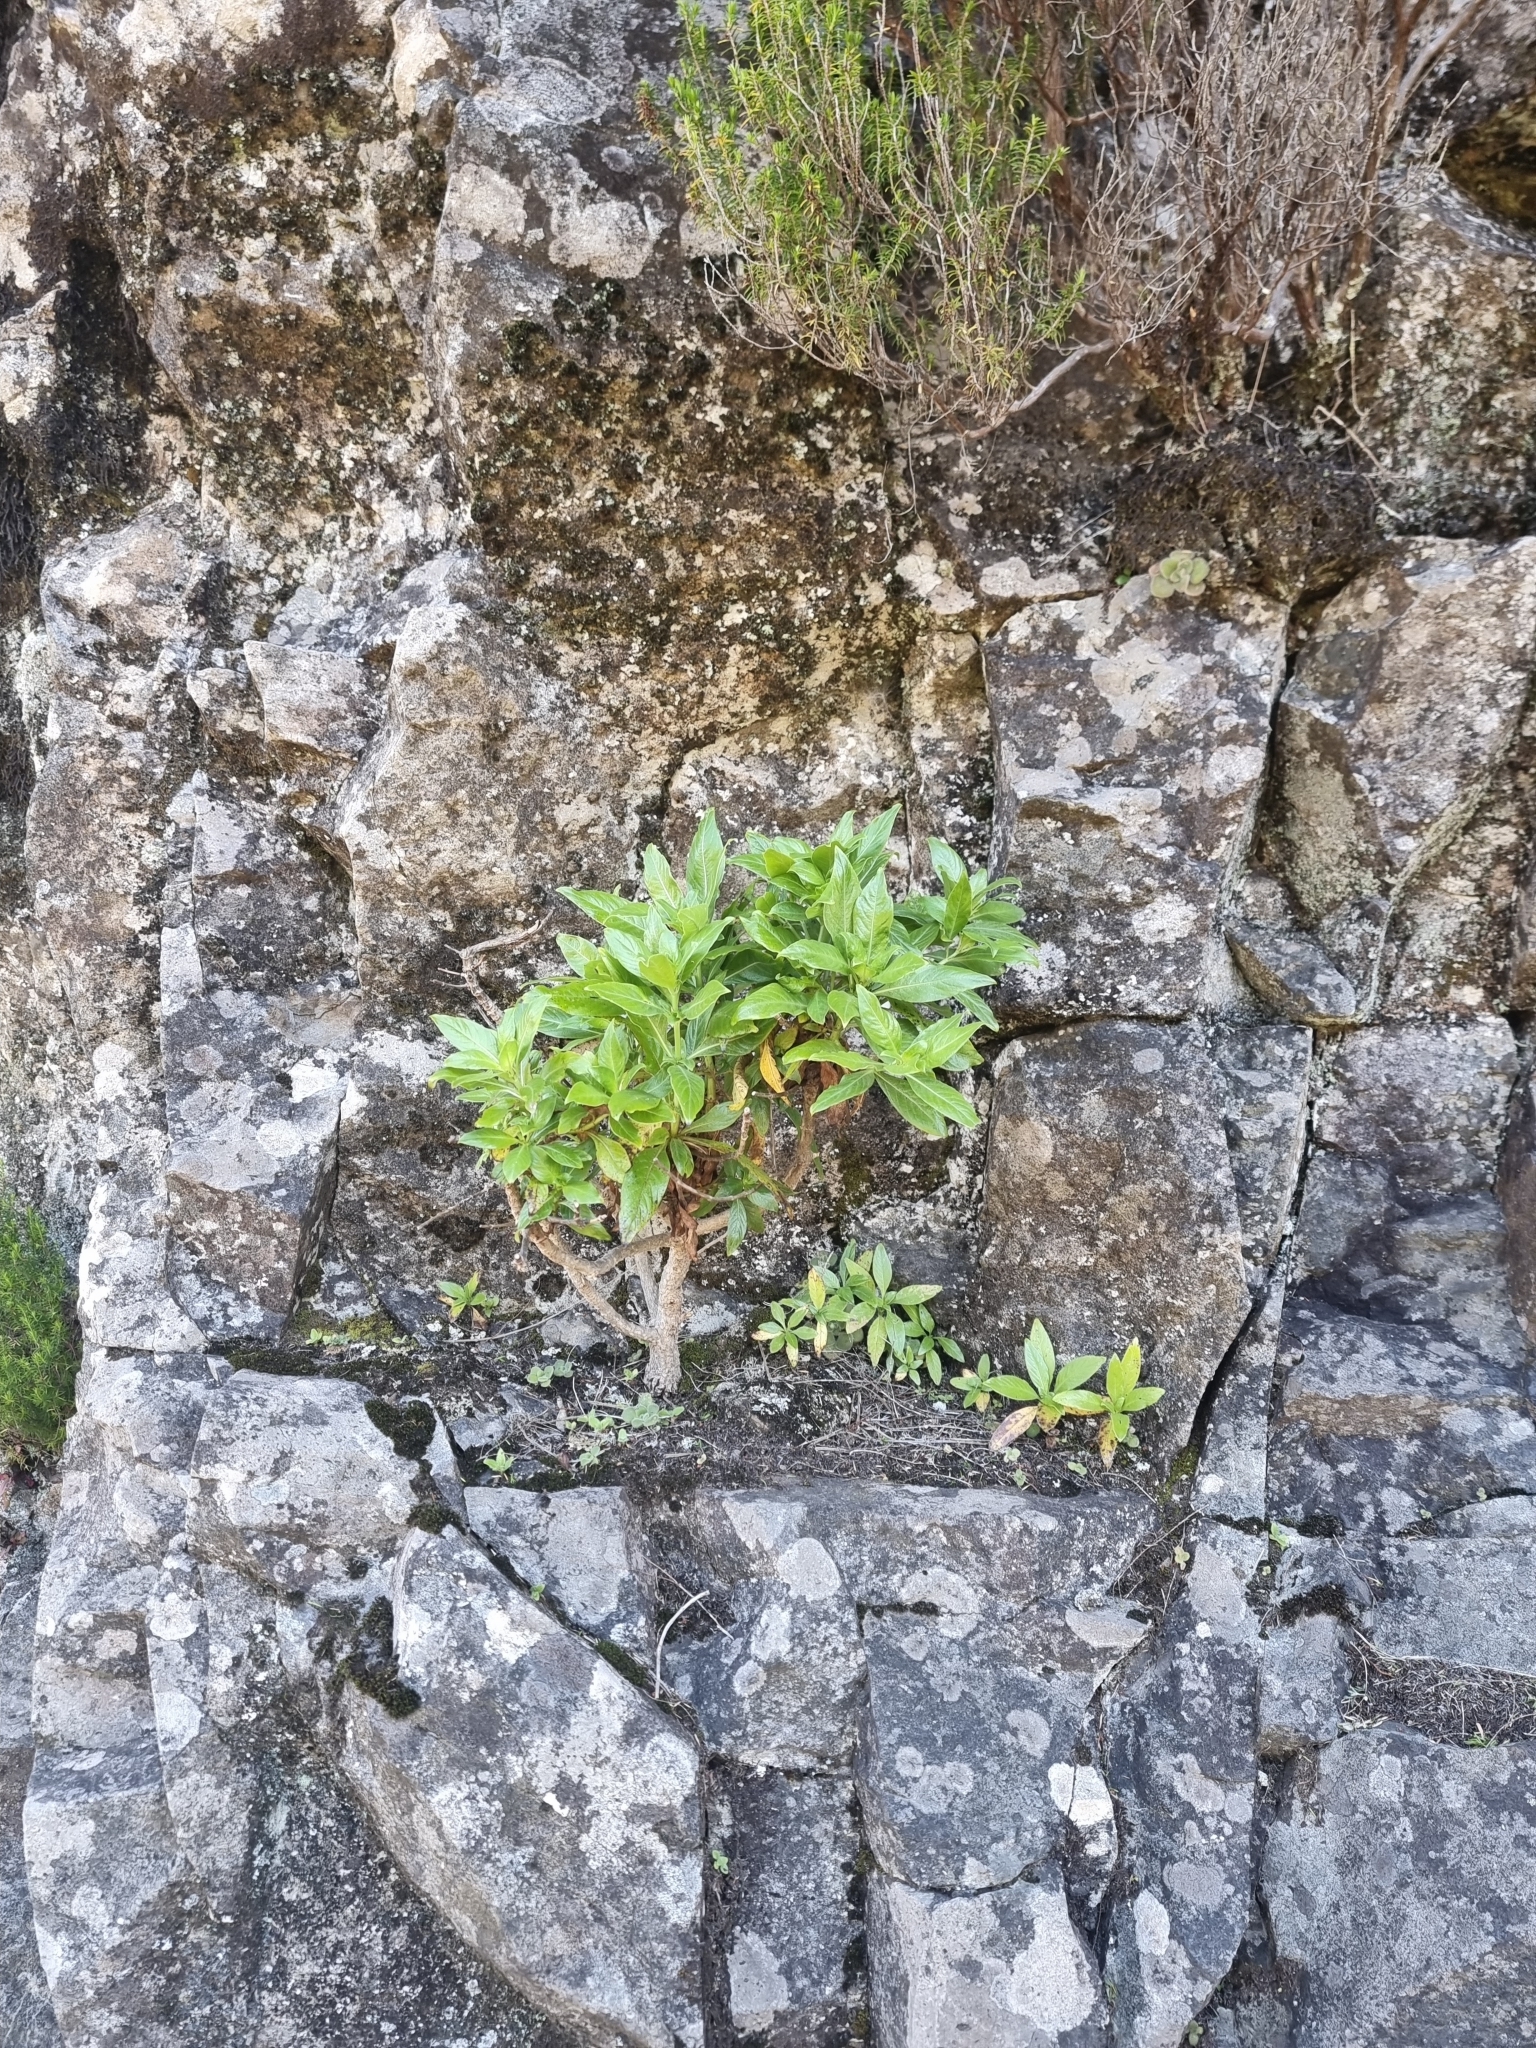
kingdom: Plantae
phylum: Tracheophyta
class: Magnoliopsida
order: Gentianales
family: Rubiaceae
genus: Phyllis
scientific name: Phyllis nobla
